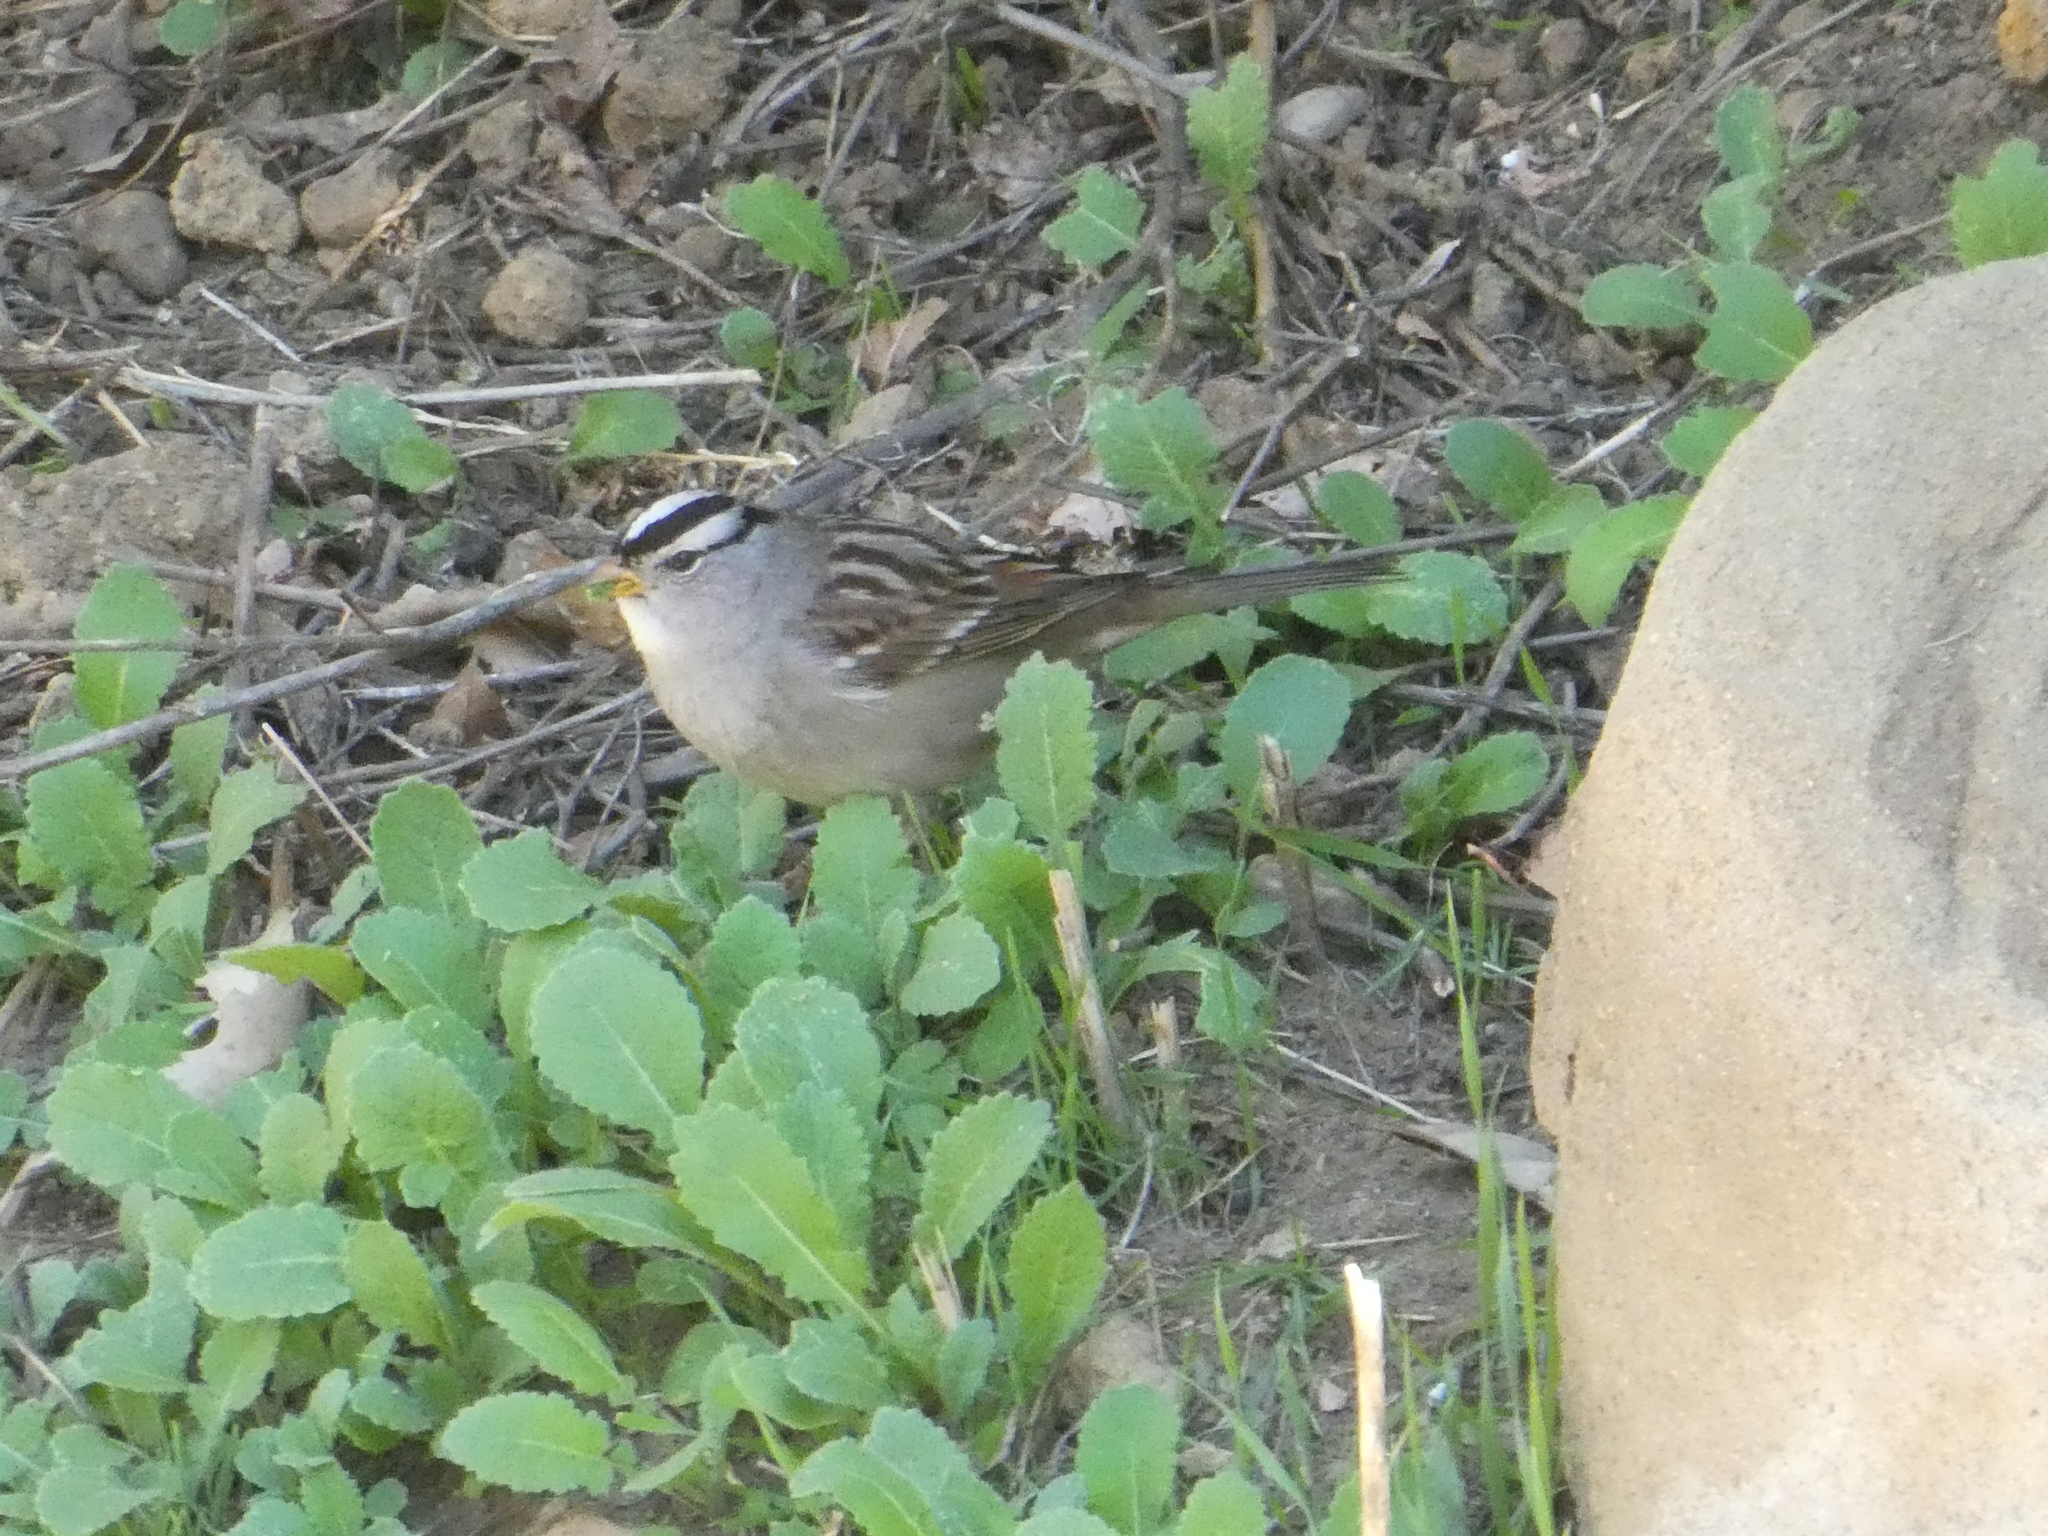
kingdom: Animalia
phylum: Chordata
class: Aves
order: Passeriformes
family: Passerellidae
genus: Zonotrichia
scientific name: Zonotrichia leucophrys
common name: White-crowned sparrow
